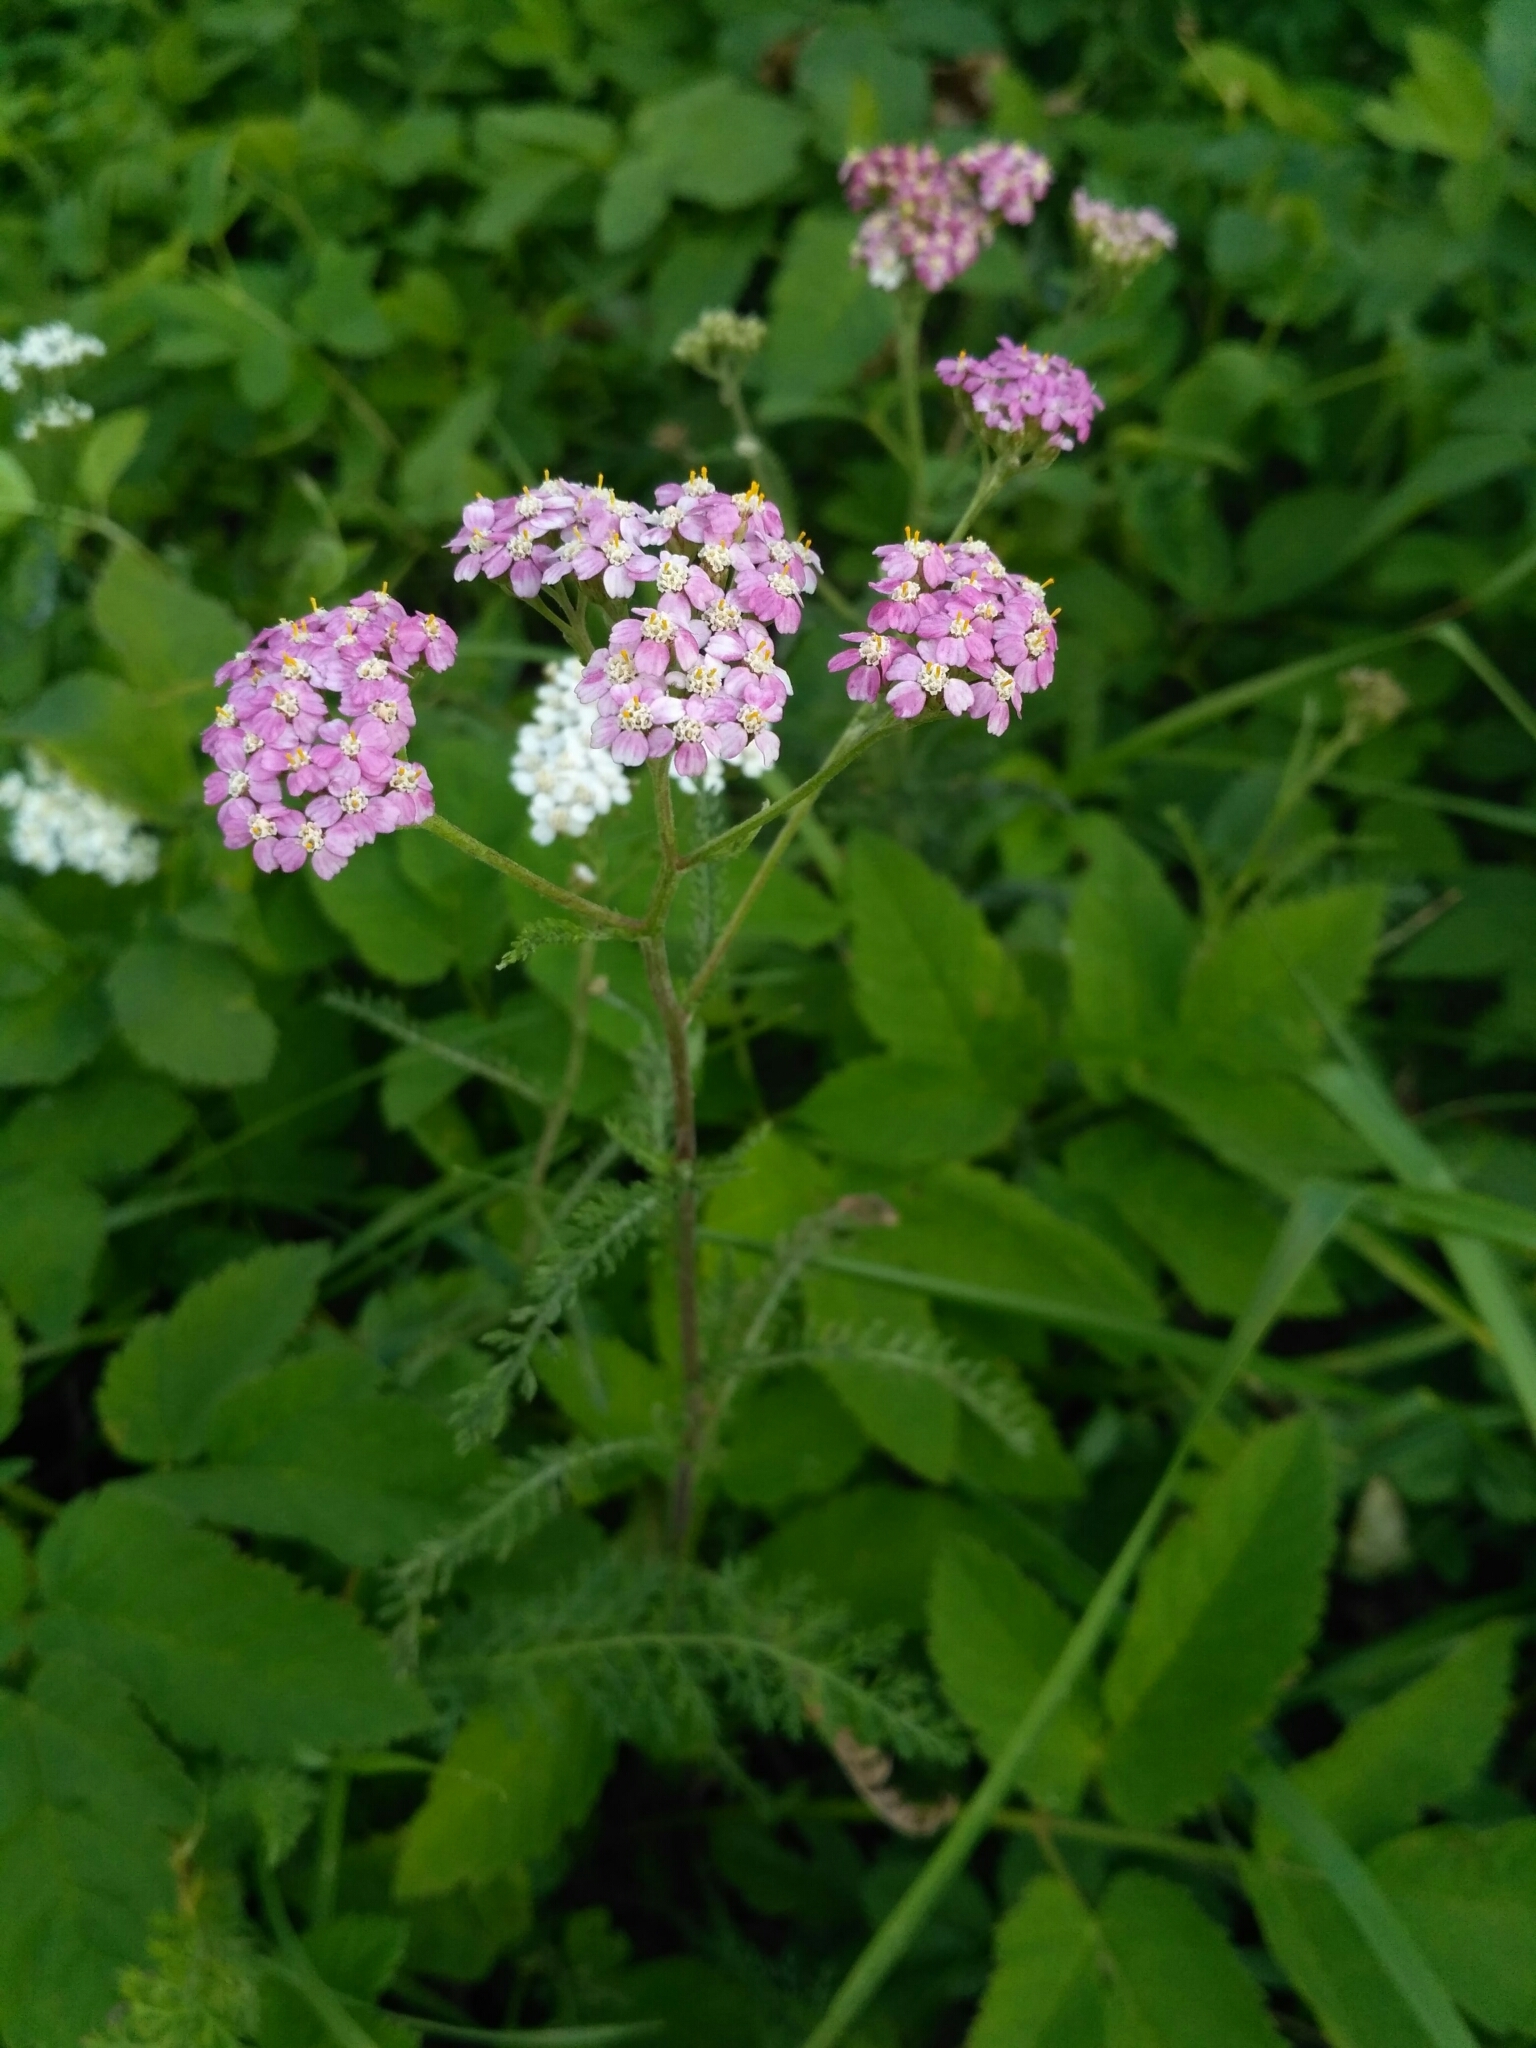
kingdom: Plantae
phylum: Tracheophyta
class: Magnoliopsida
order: Asterales
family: Asteraceae
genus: Achillea
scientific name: Achillea millefolium
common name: Yarrow
